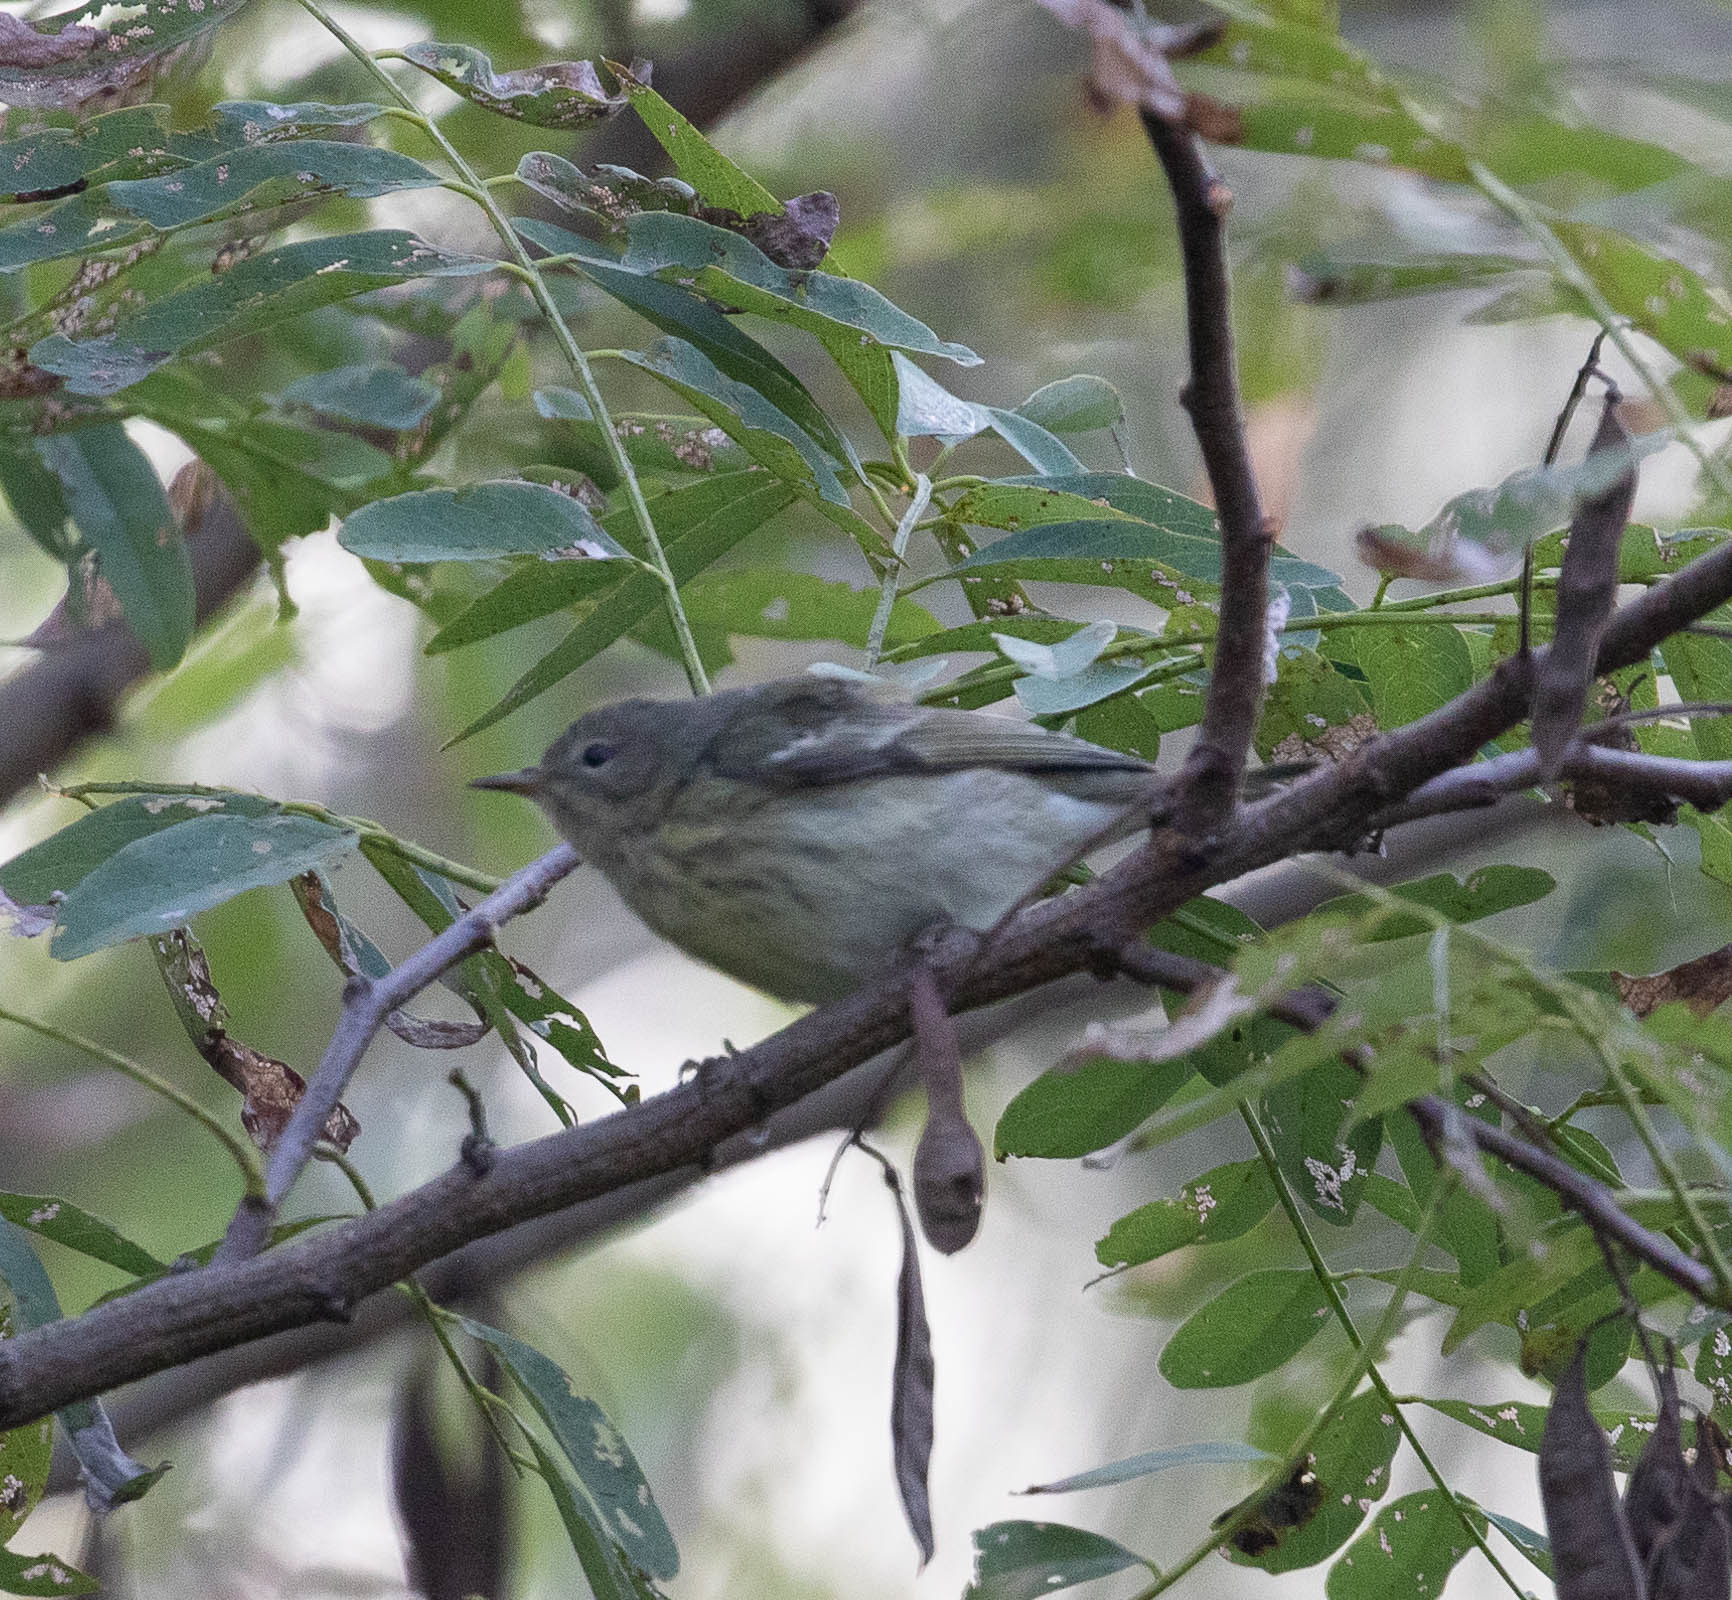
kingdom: Animalia
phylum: Chordata
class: Aves
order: Passeriformes
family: Parulidae
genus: Setophaga
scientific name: Setophaga tigrina
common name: Cape may warbler
